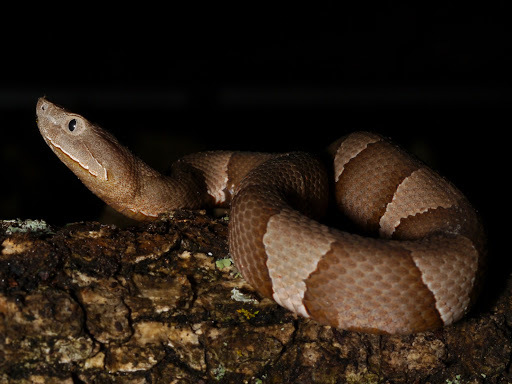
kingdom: Animalia
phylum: Chordata
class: Squamata
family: Viperidae
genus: Agkistrodon
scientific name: Agkistrodon laticinctus
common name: Broad-banded copperhead
